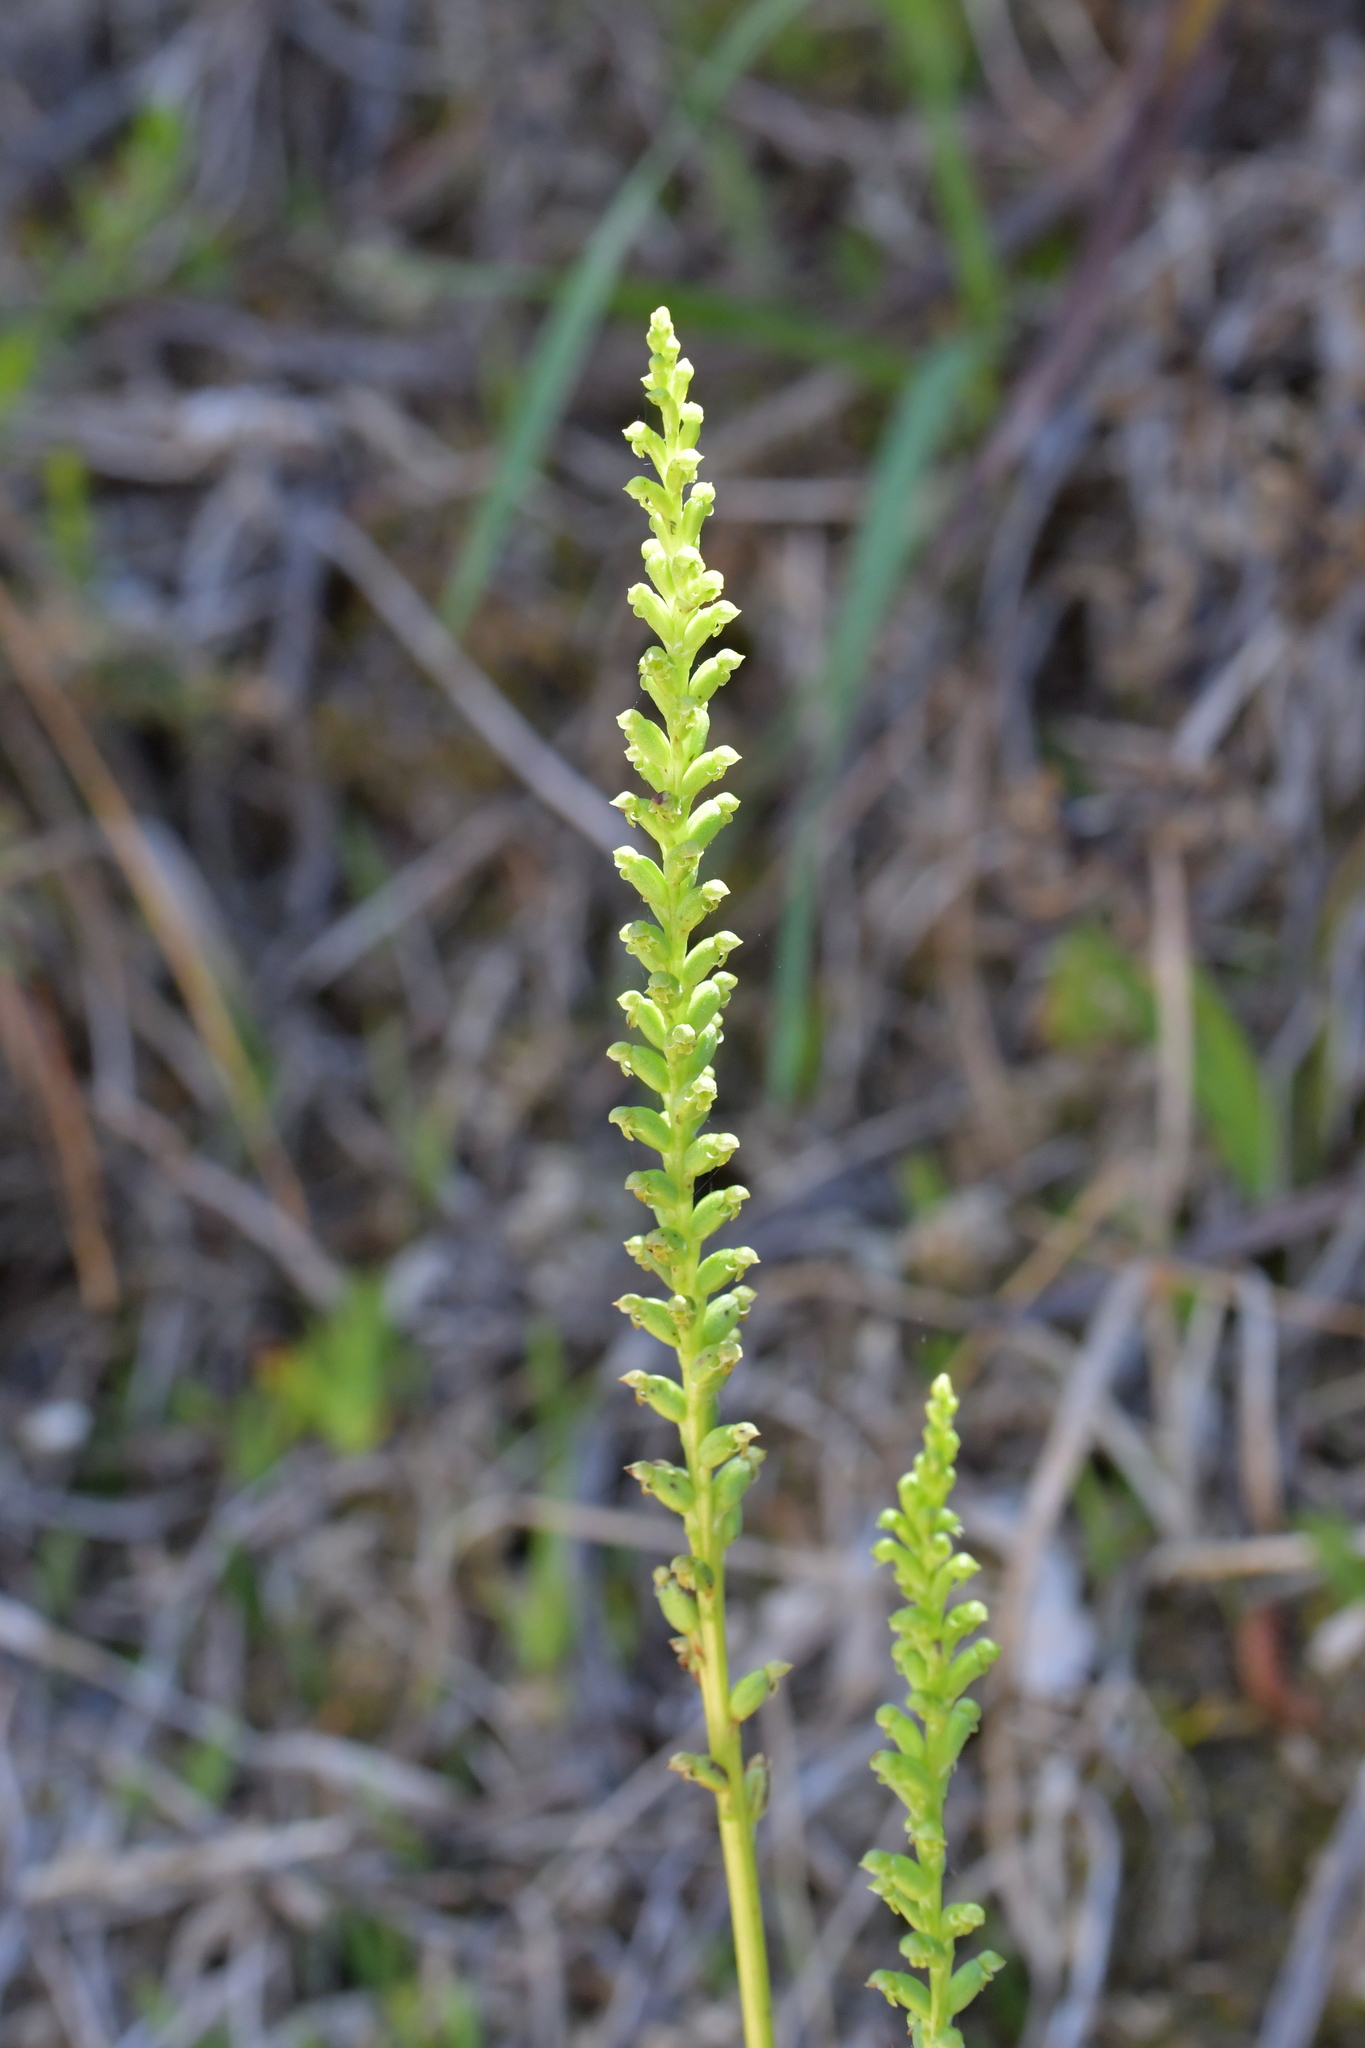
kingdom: Plantae
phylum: Tracheophyta
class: Liliopsida
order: Asparagales
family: Orchidaceae
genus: Microtis
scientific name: Microtis unifolia
